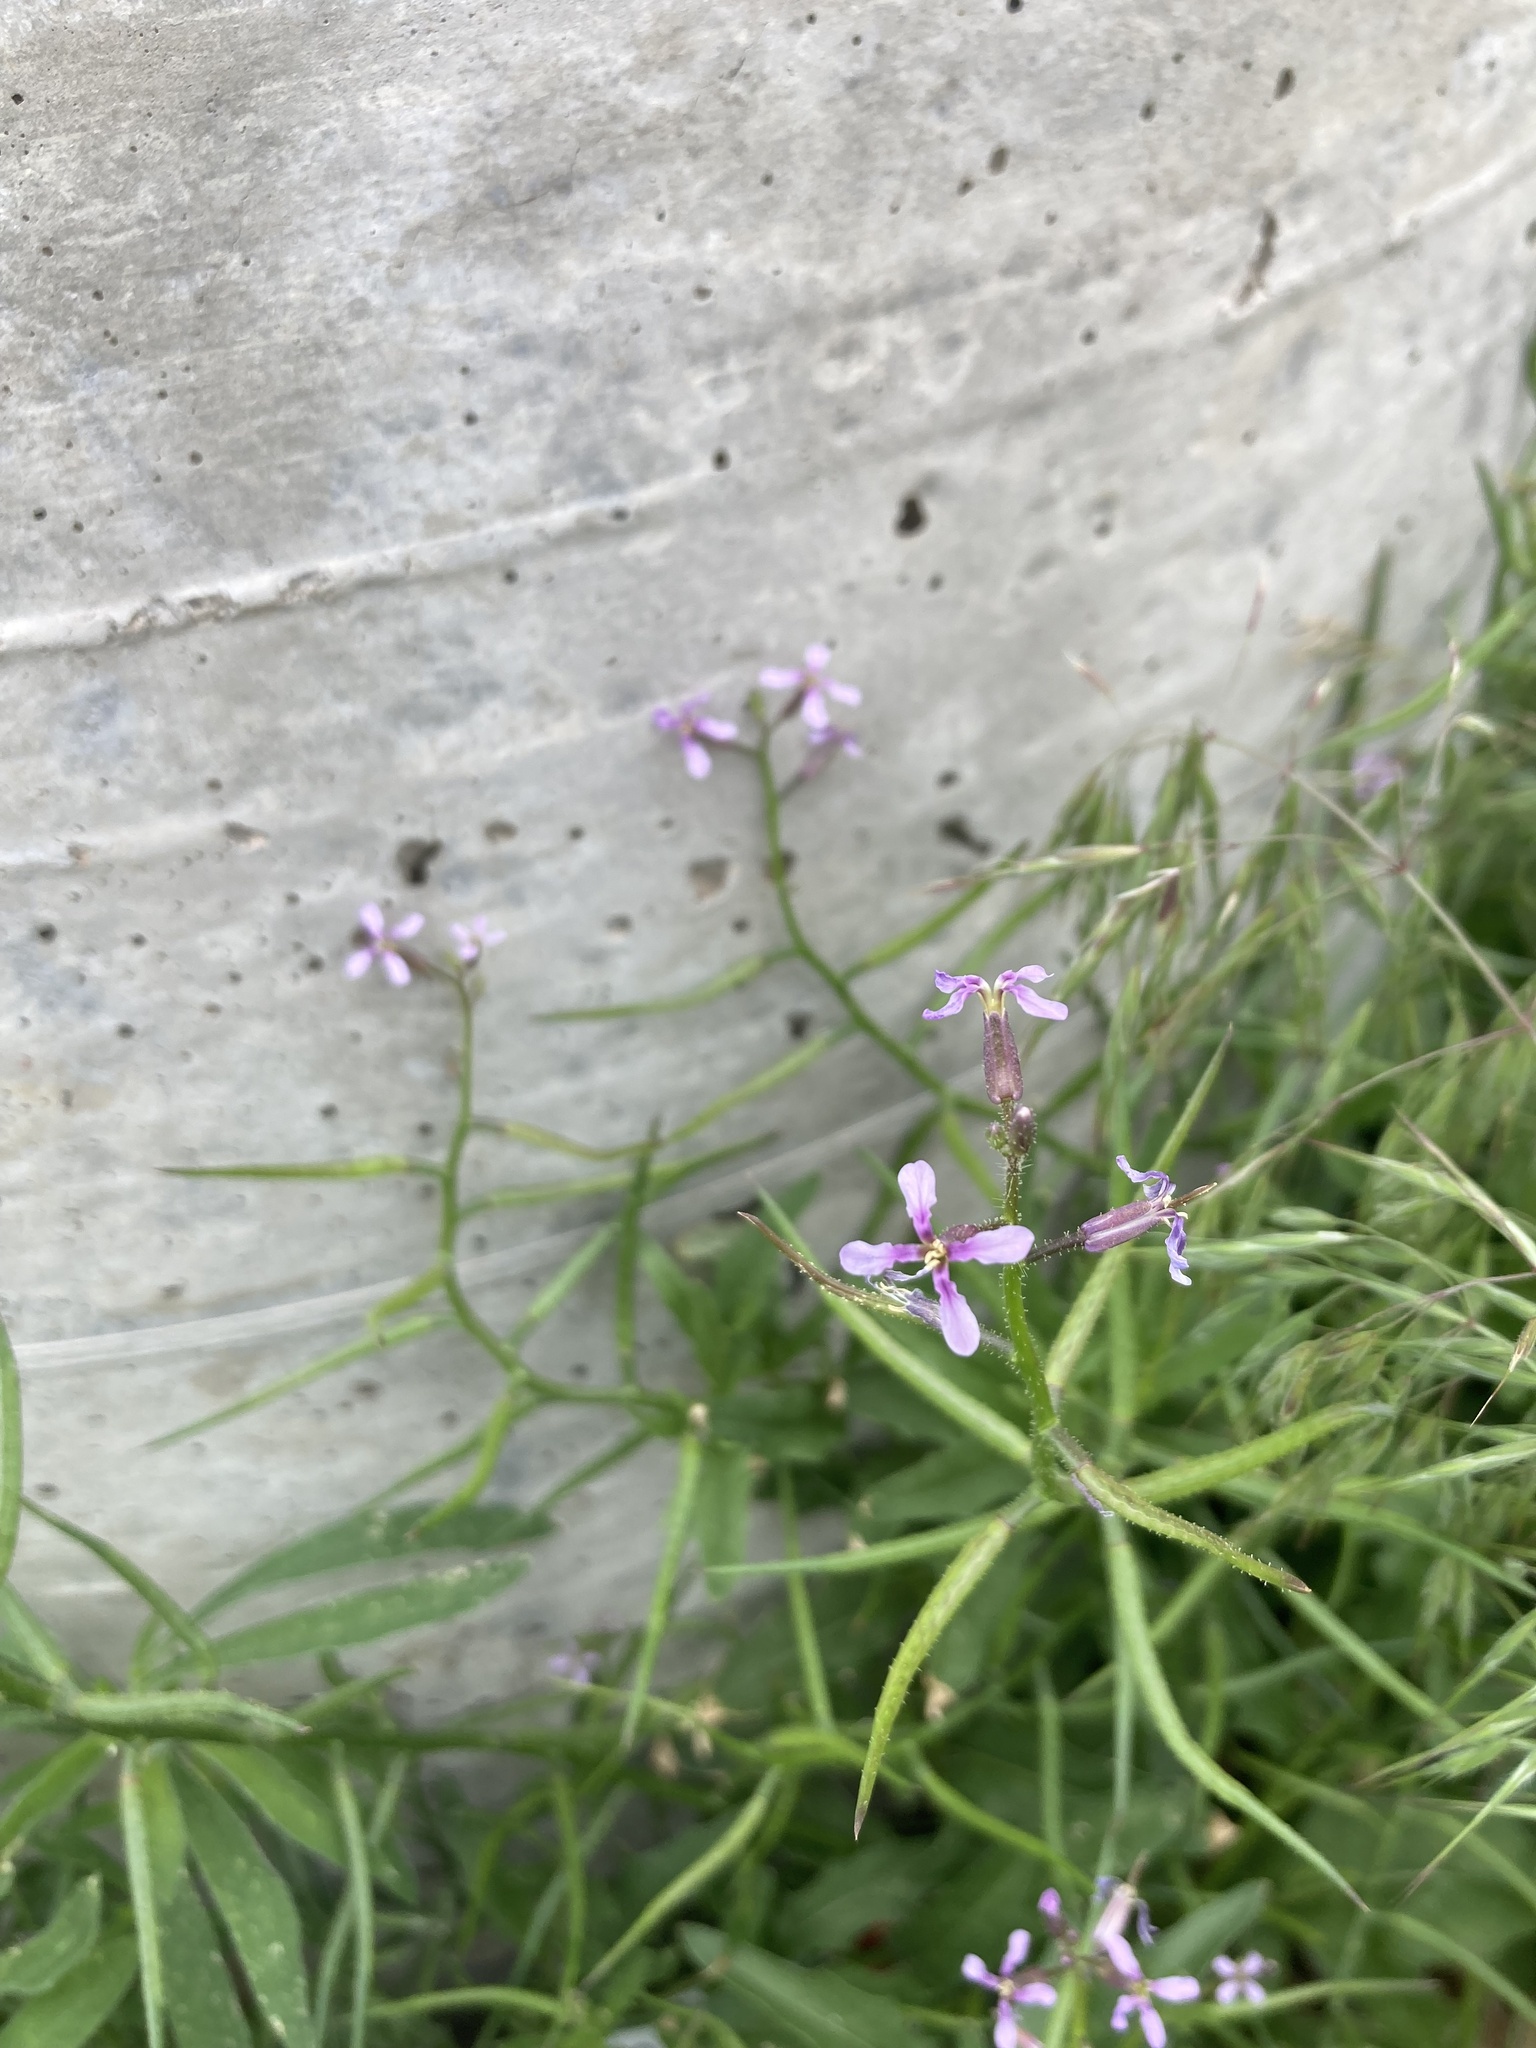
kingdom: Plantae
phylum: Tracheophyta
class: Magnoliopsida
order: Brassicales
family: Brassicaceae
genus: Chorispora
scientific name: Chorispora tenella
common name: Crossflower
